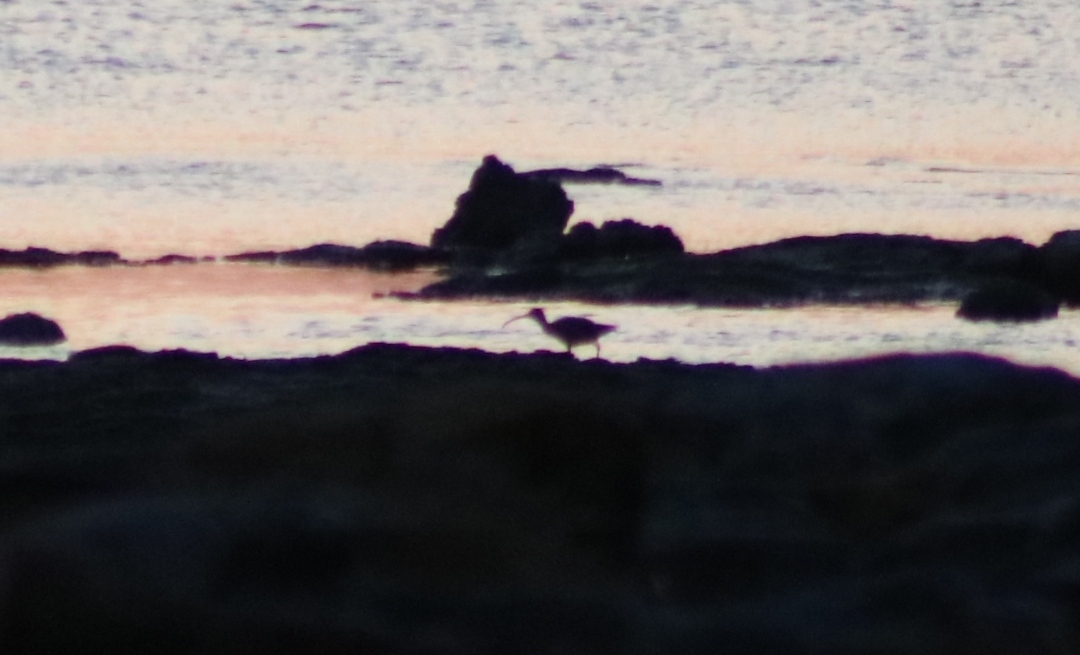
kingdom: Animalia
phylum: Chordata
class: Aves
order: Charadriiformes
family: Scolopacidae
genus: Numenius
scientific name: Numenius phaeopus
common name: Whimbrel
